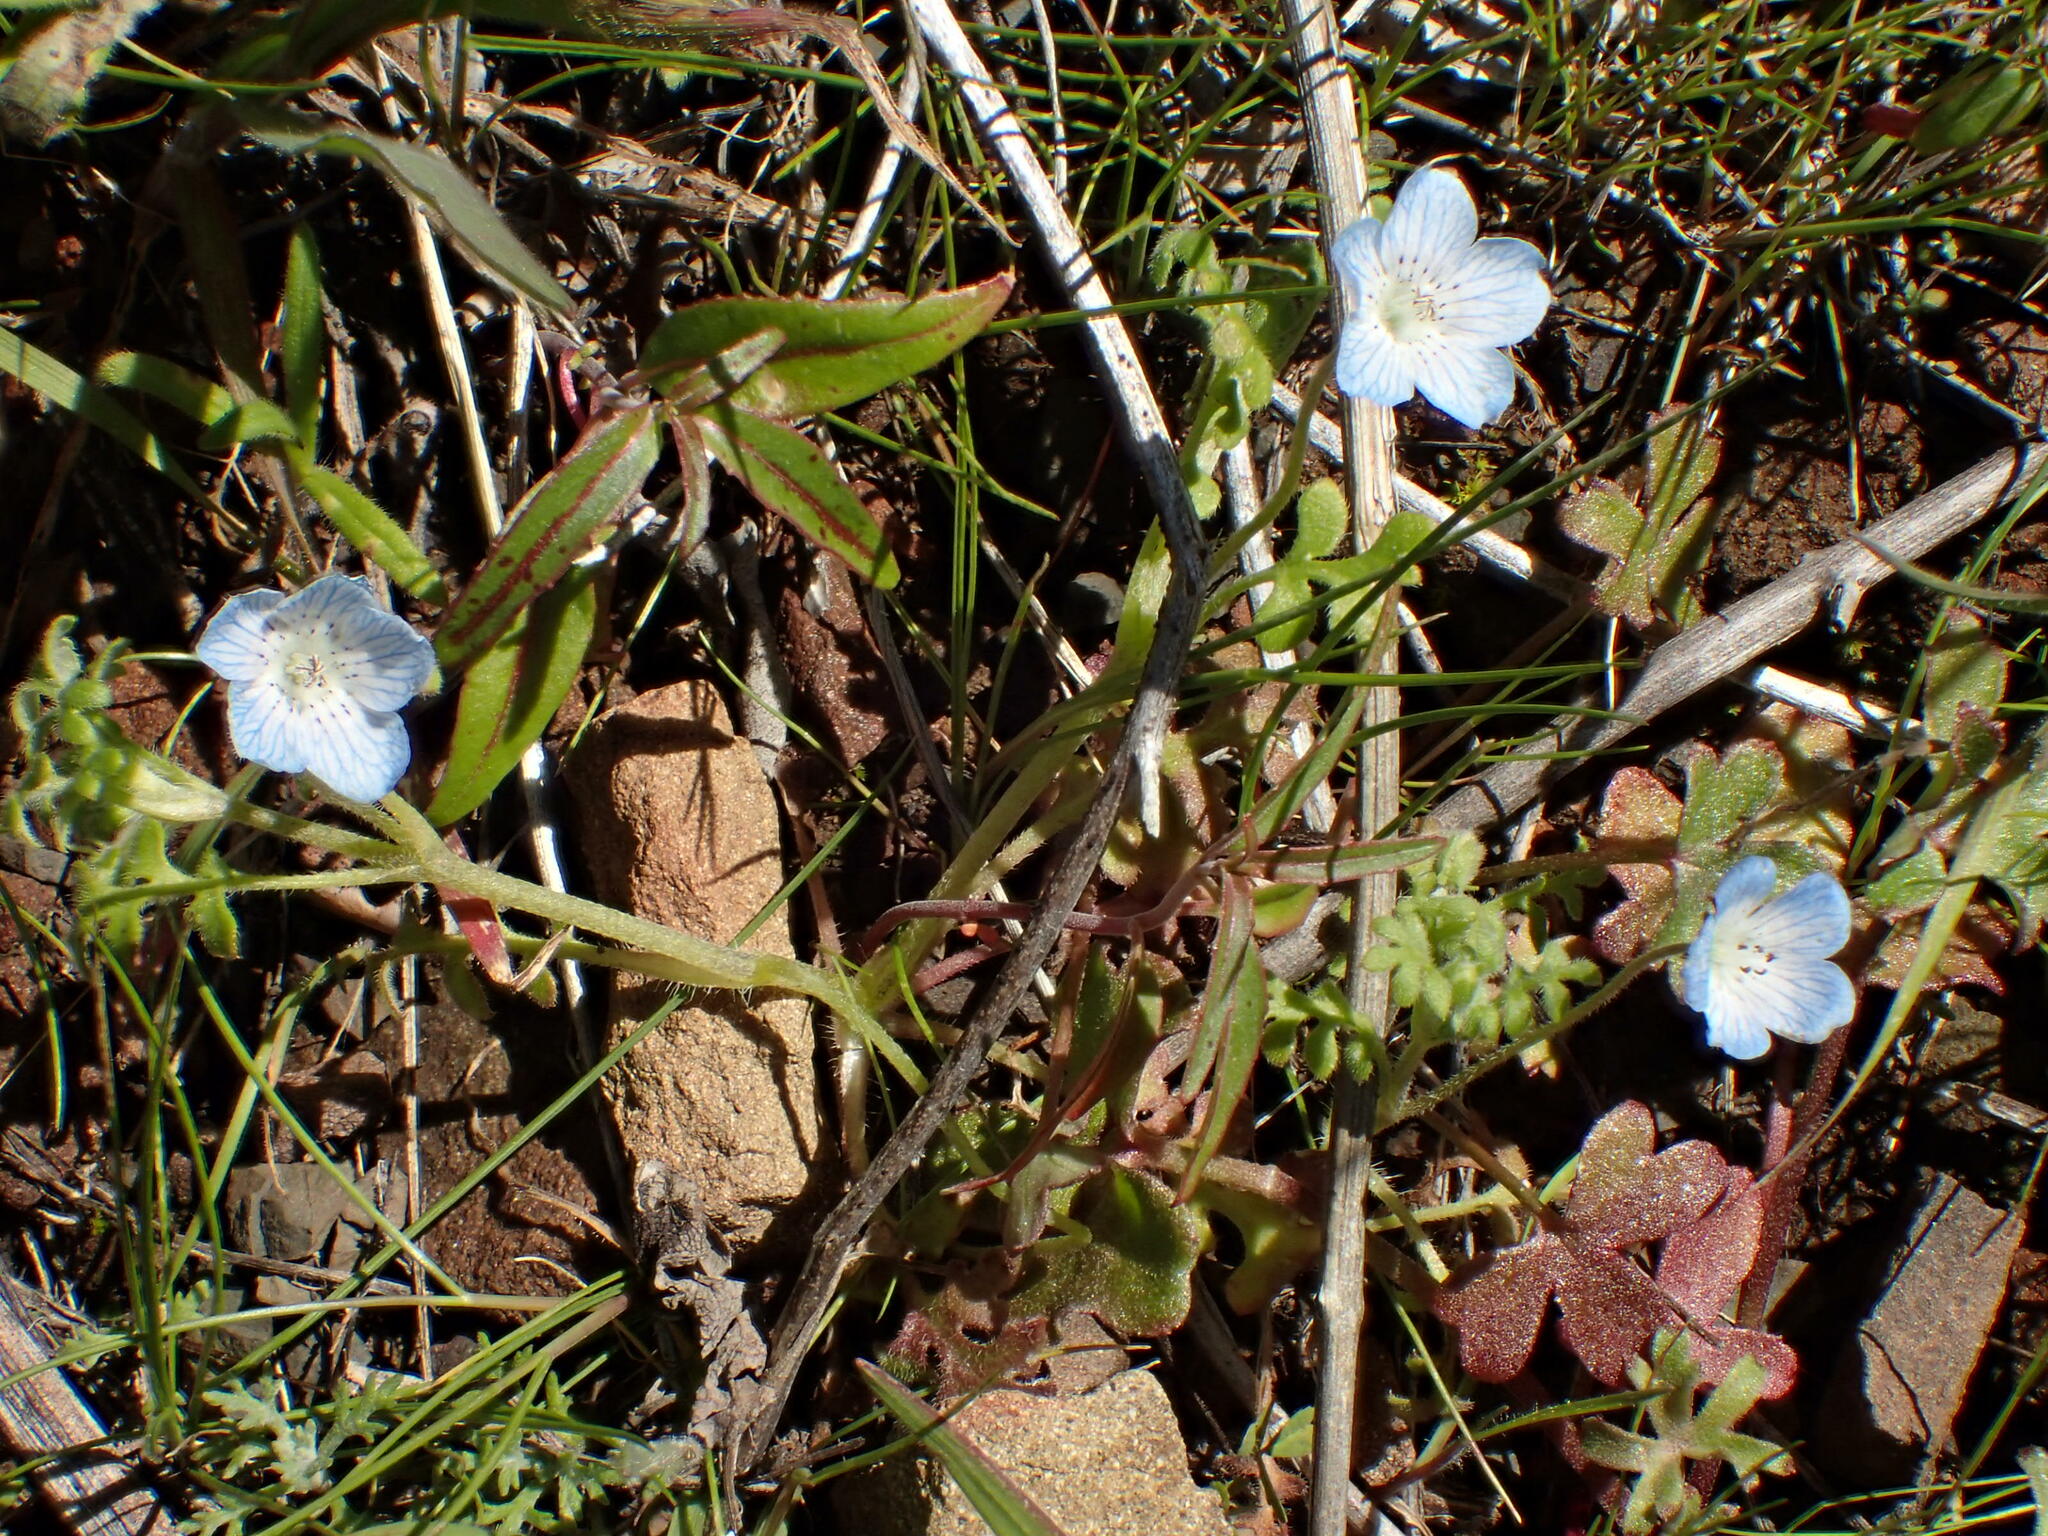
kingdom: Plantae
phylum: Tracheophyta
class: Magnoliopsida
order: Boraginales
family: Hydrophyllaceae
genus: Nemophila
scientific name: Nemophila menziesii
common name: Baby's-blue-eyes
